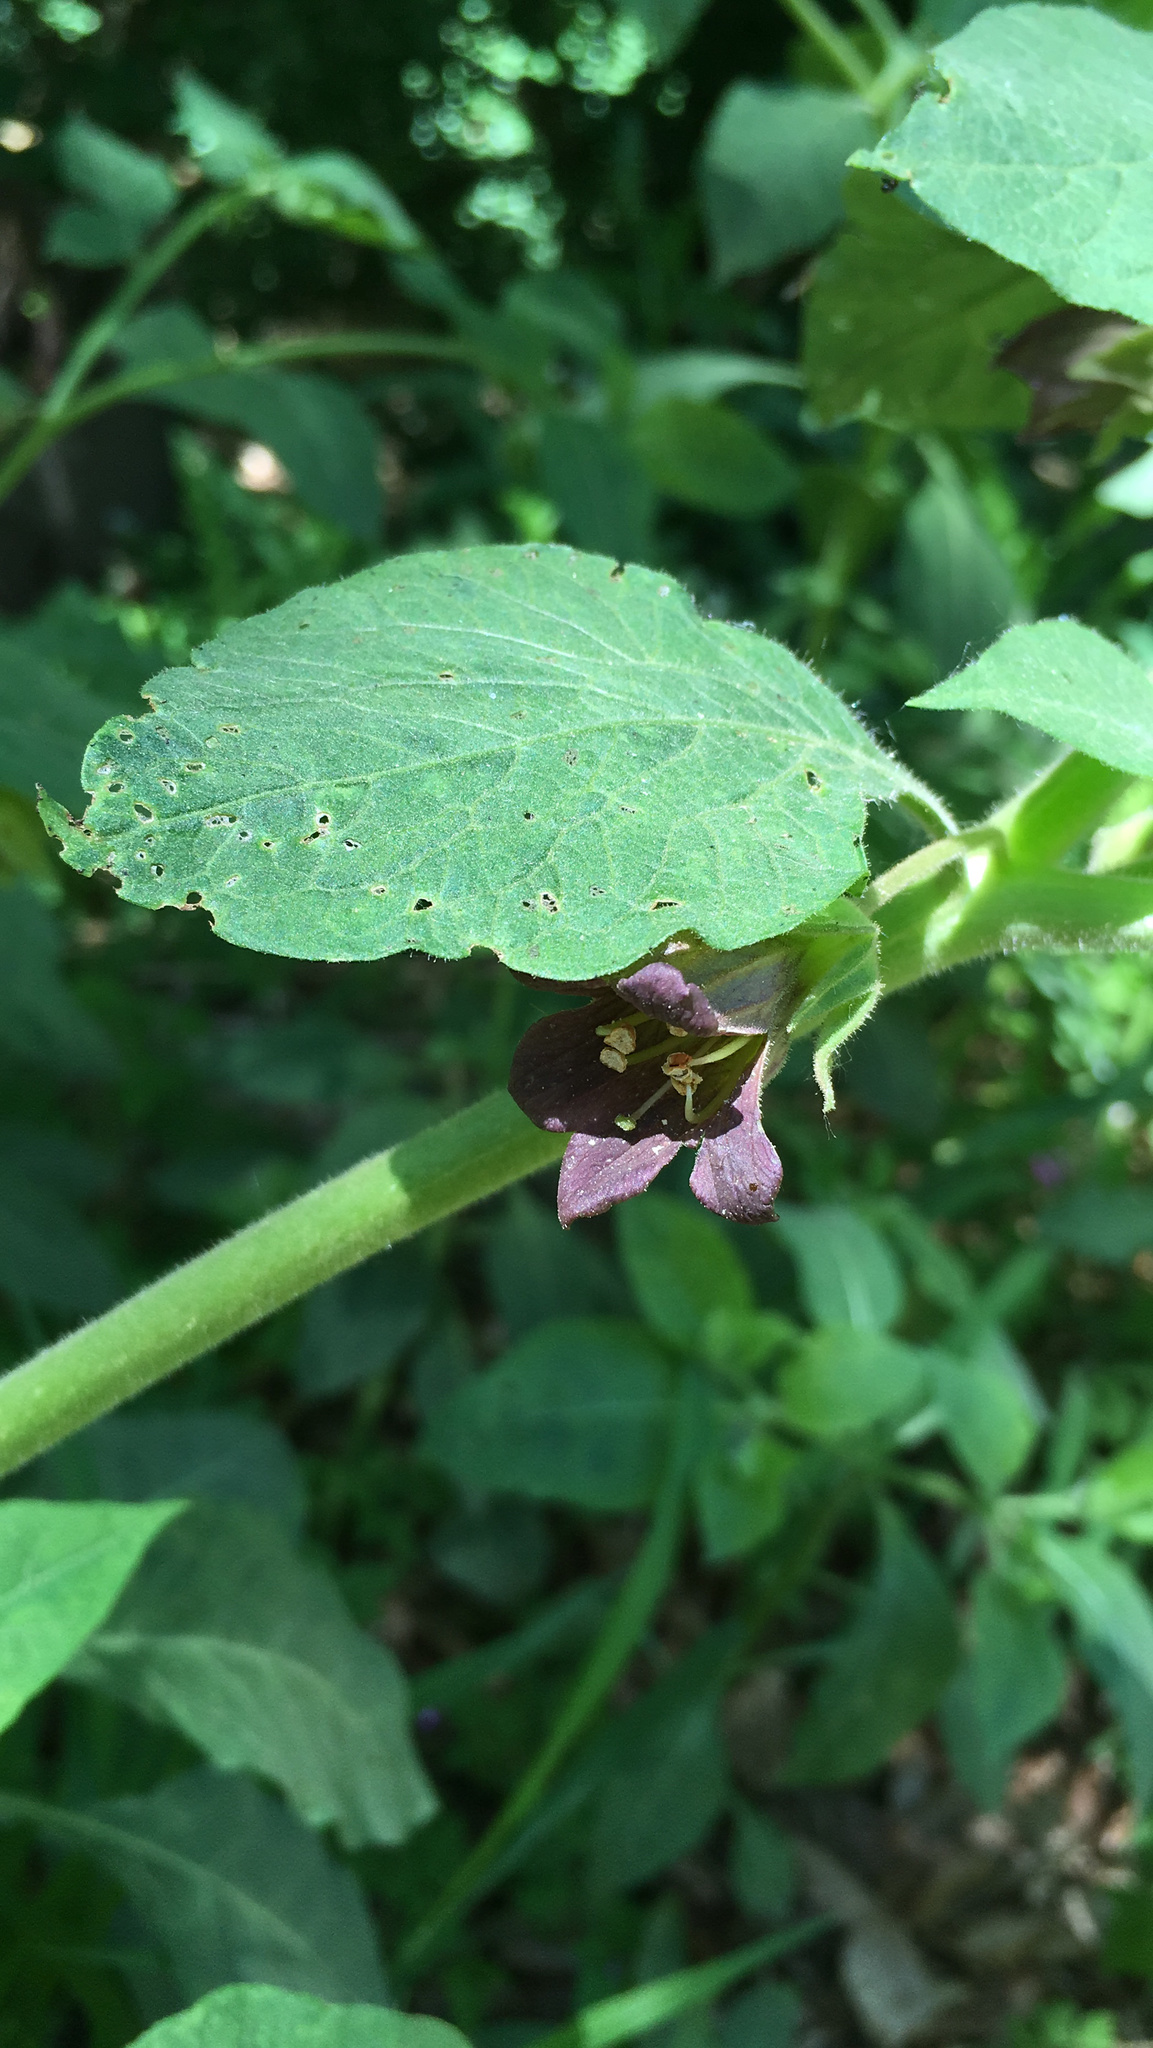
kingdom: Plantae
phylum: Tracheophyta
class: Magnoliopsida
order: Solanales
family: Solanaceae
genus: Atropa
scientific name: Atropa belladonna
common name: Deadly nightshade
